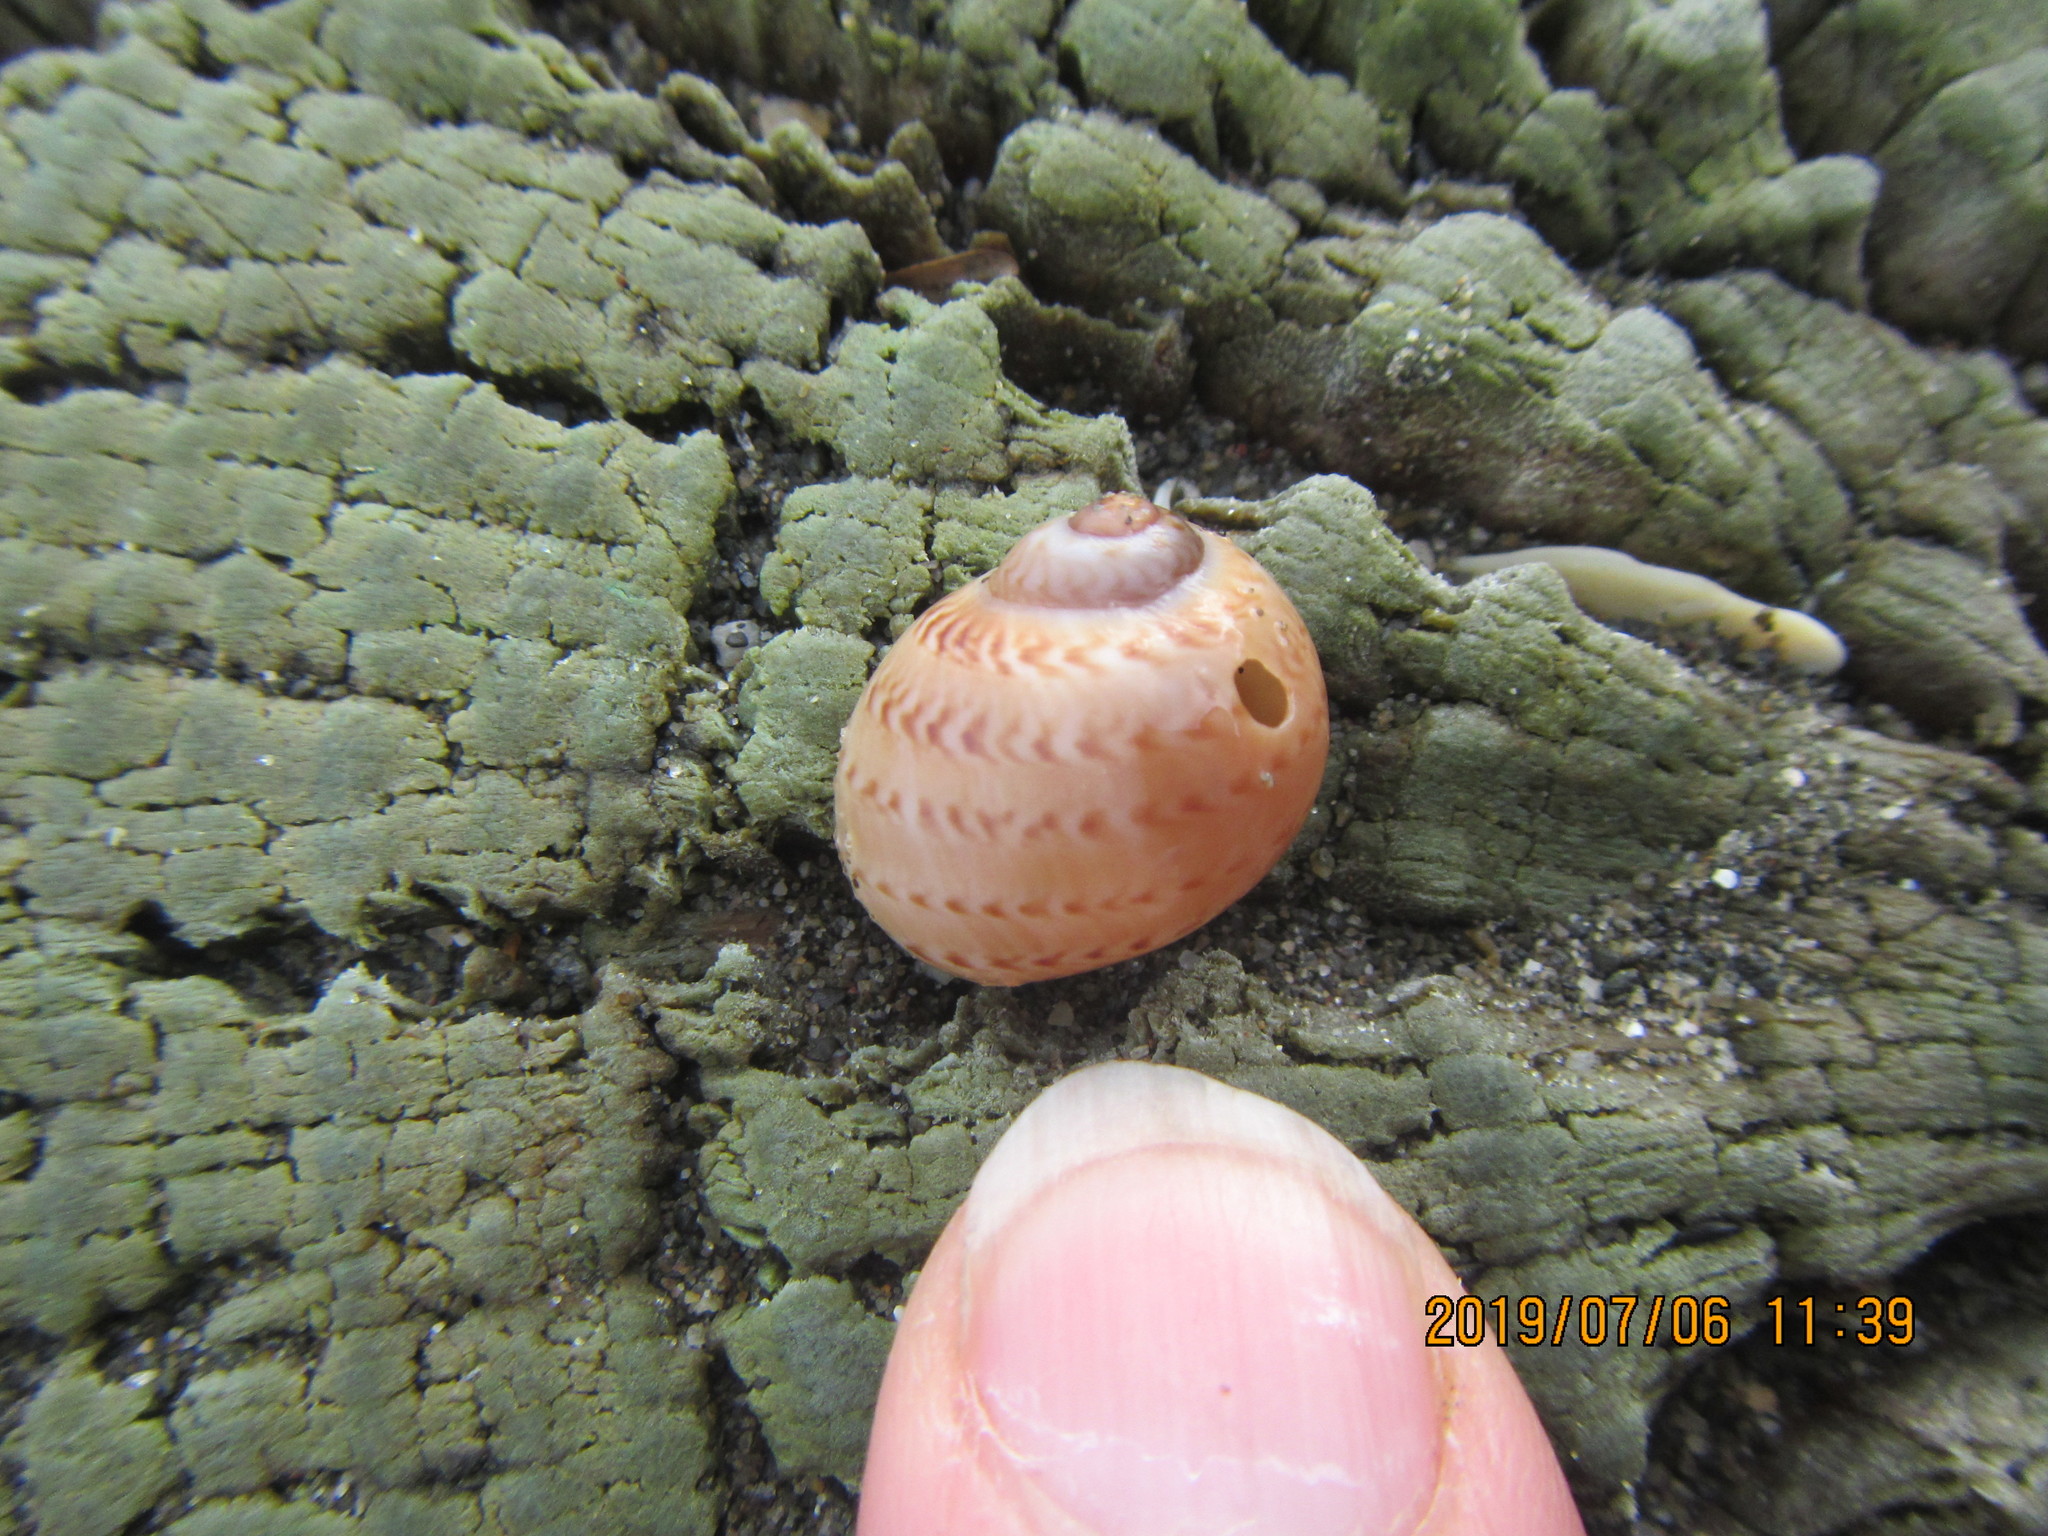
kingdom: Animalia
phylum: Mollusca
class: Gastropoda
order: Littorinimorpha
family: Naticidae
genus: Tanea
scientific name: Tanea zelandica
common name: New zealand moonsnail
